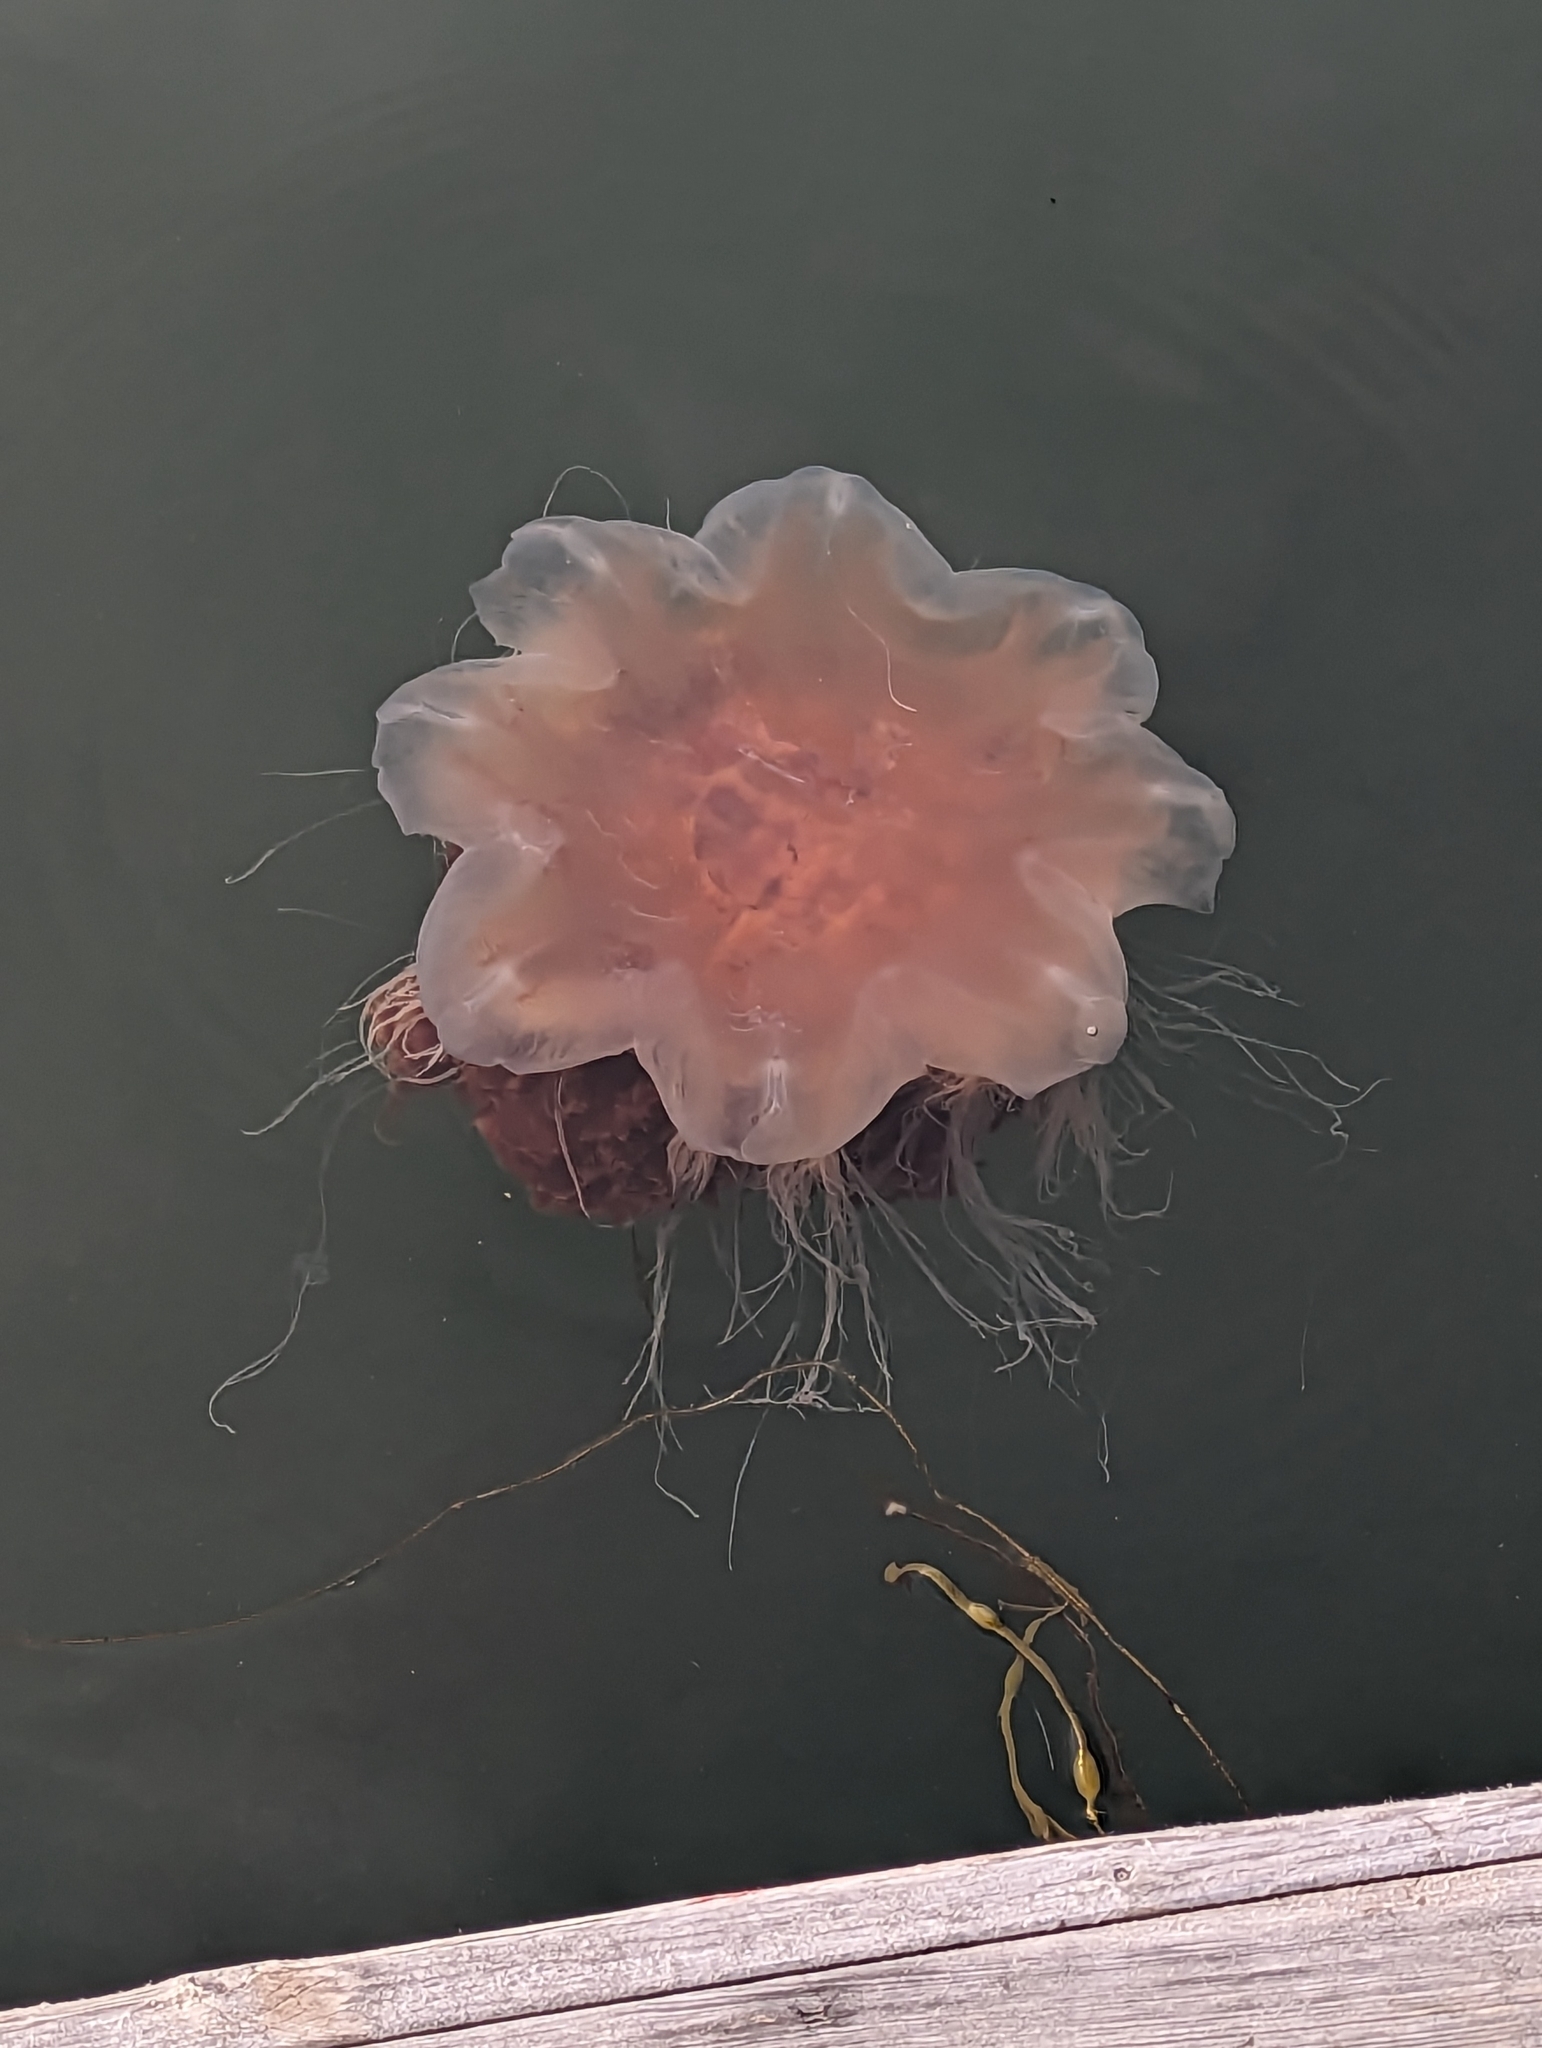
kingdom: Animalia
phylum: Cnidaria
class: Scyphozoa
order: Semaeostomeae
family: Cyaneidae
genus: Cyanea
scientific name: Cyanea capillata
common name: Lion's mane jellyfish
